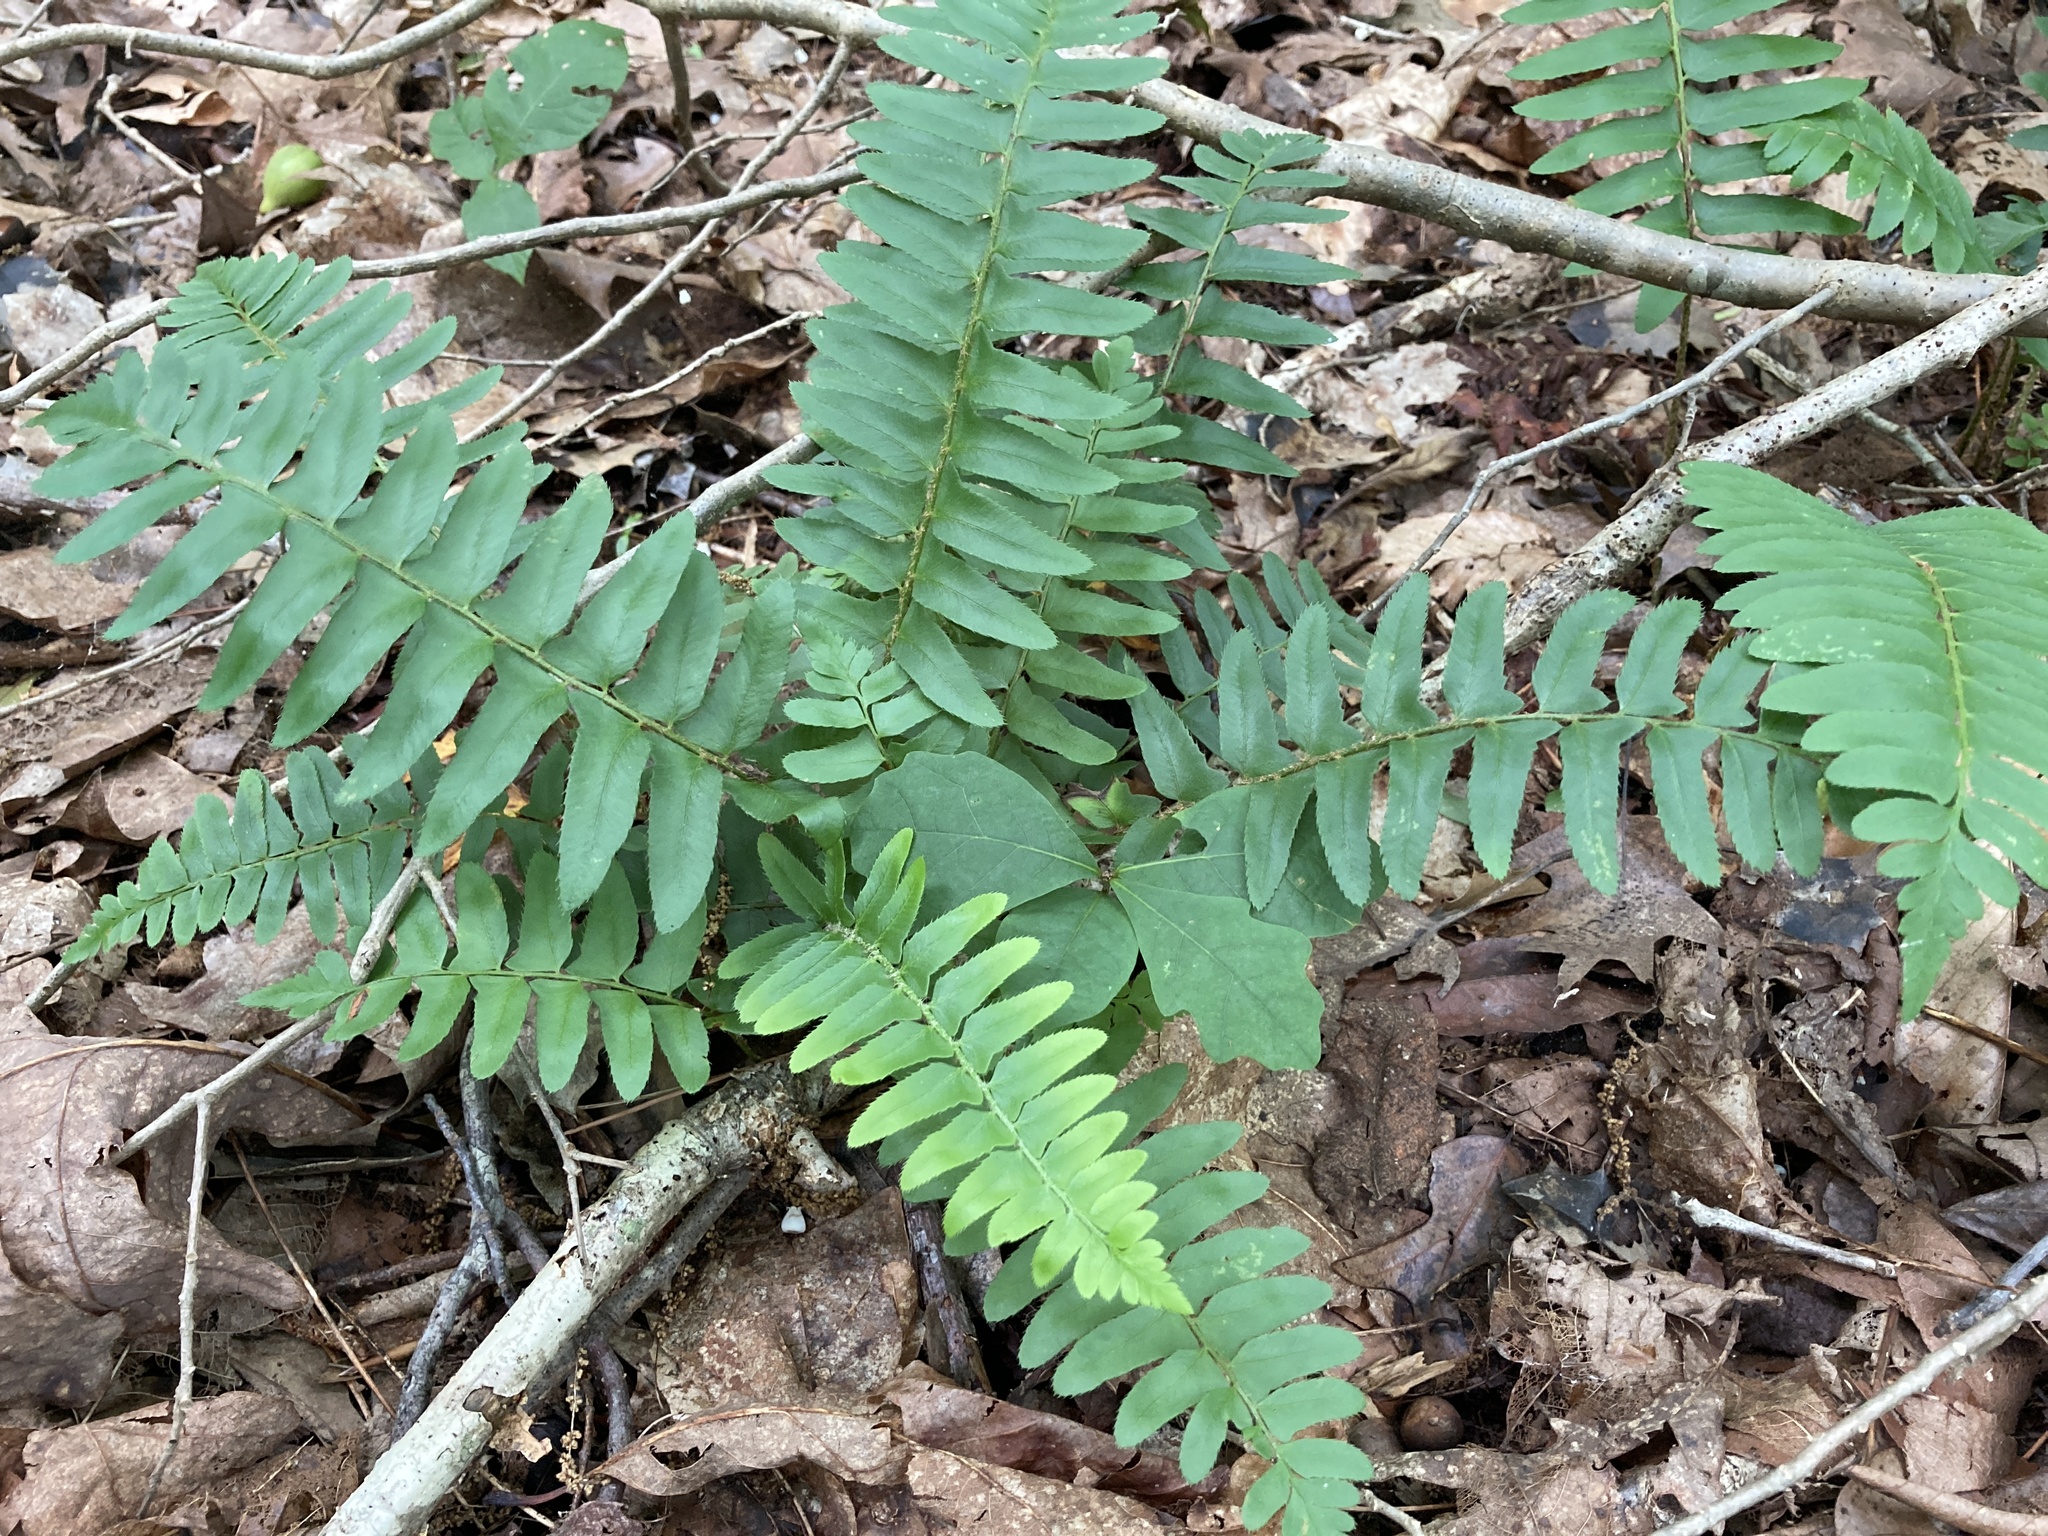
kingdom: Plantae
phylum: Tracheophyta
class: Polypodiopsida
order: Polypodiales
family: Dryopteridaceae
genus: Polystichum
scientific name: Polystichum acrostichoides
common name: Christmas fern
